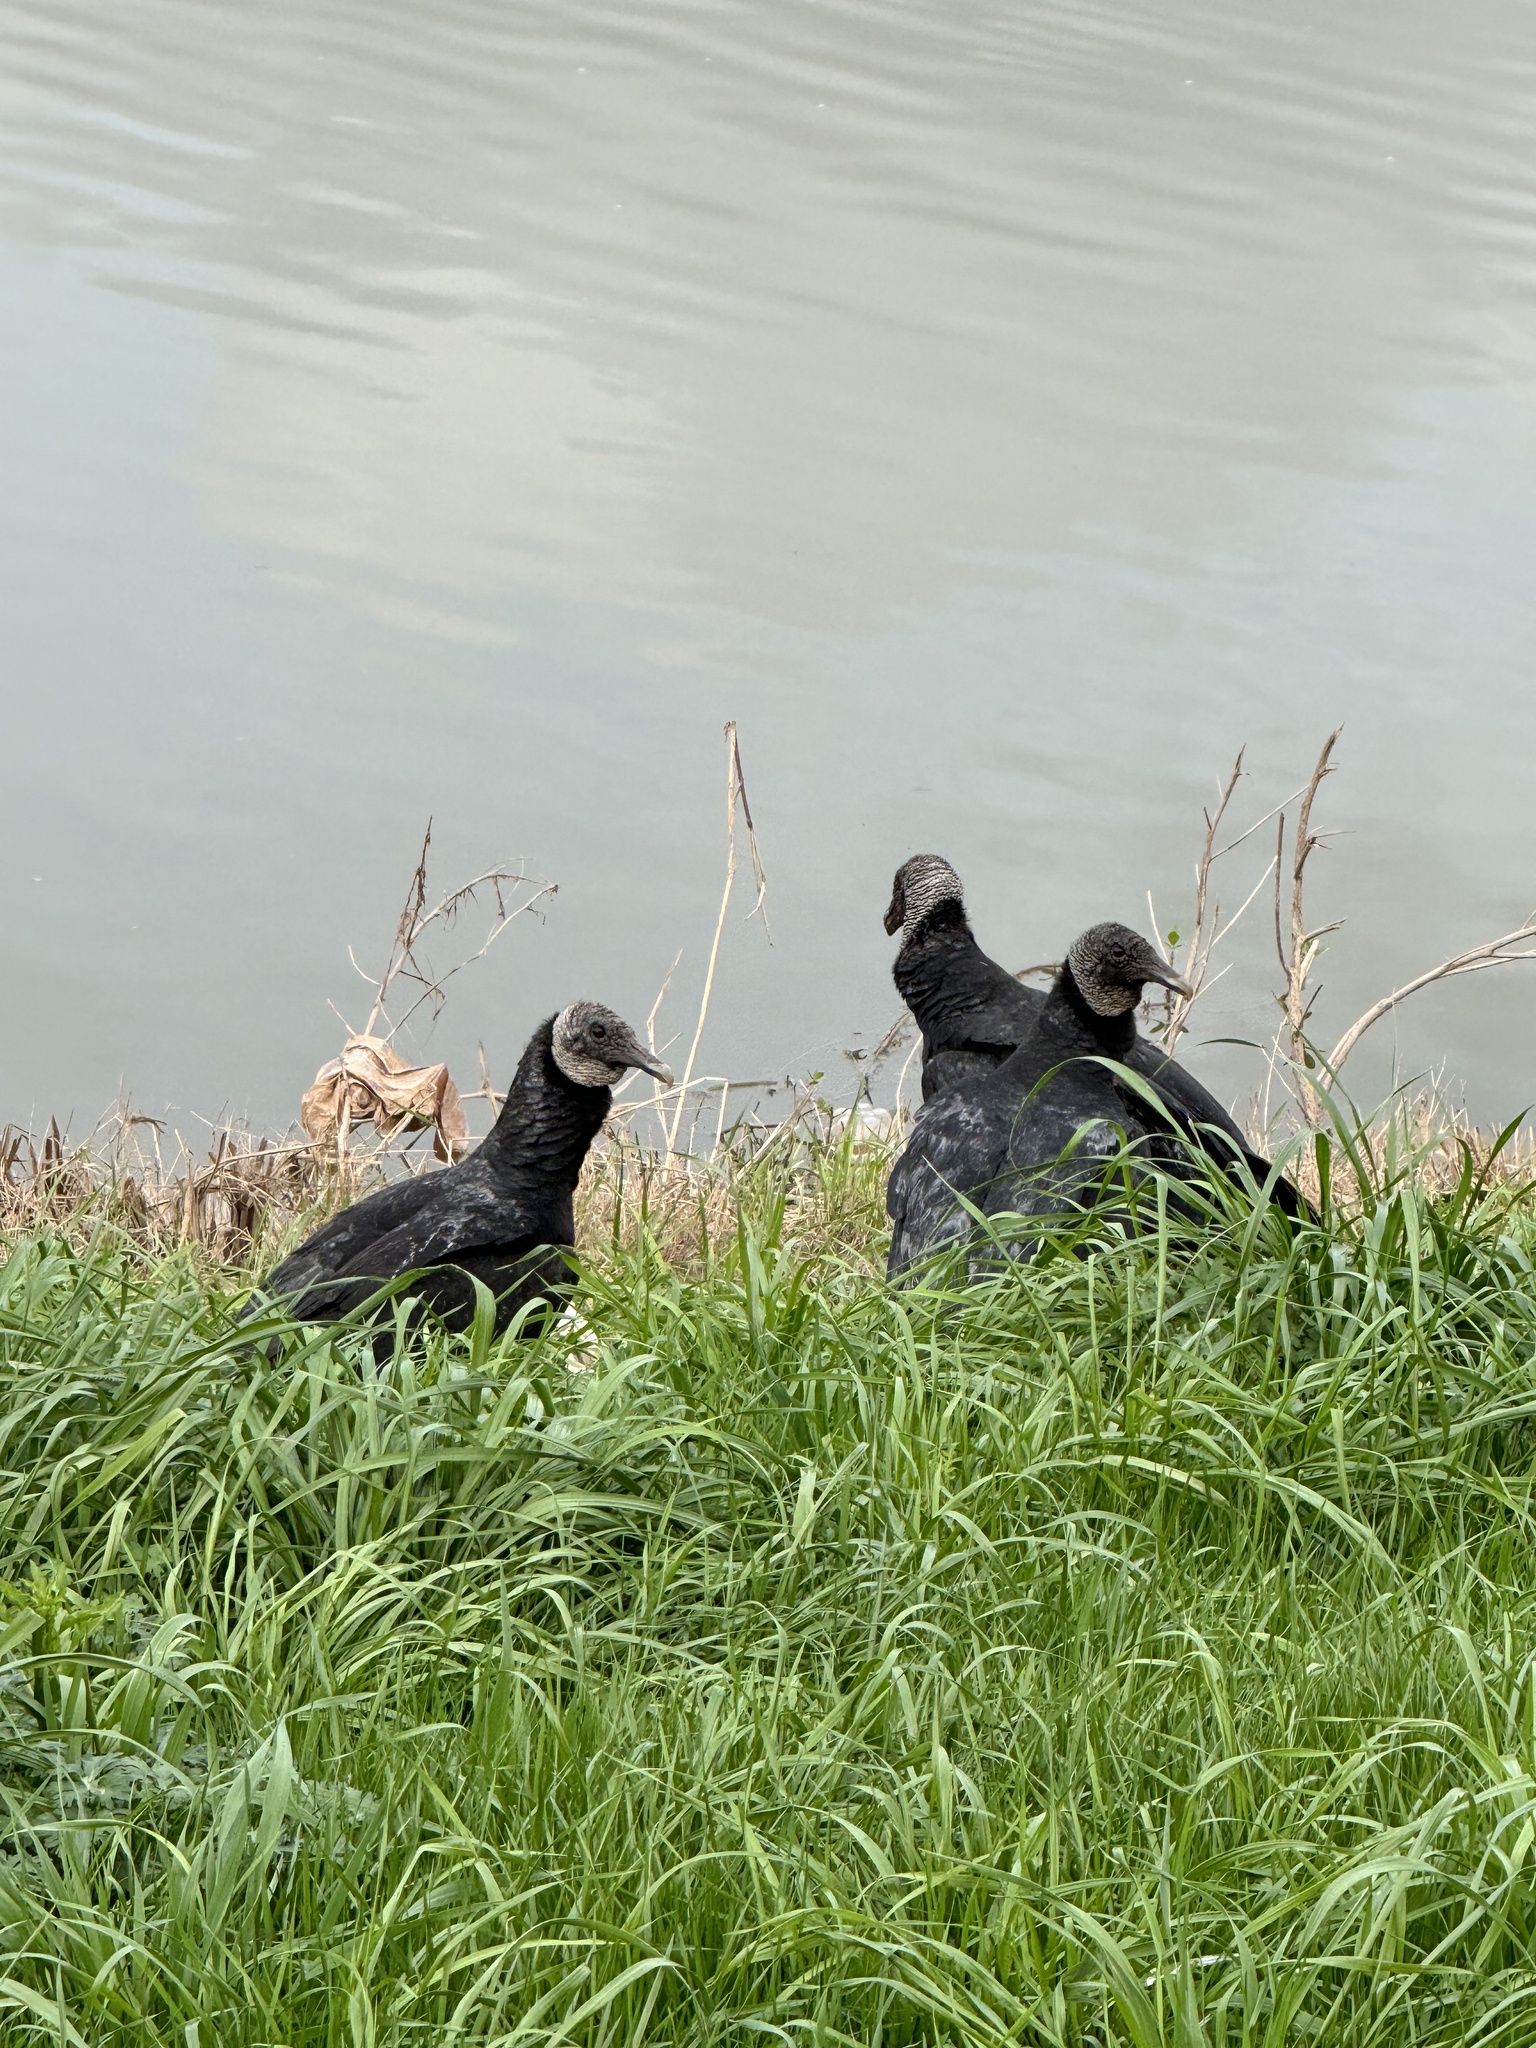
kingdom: Animalia
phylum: Chordata
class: Aves
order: Accipitriformes
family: Cathartidae
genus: Coragyps
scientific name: Coragyps atratus
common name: Black vulture
